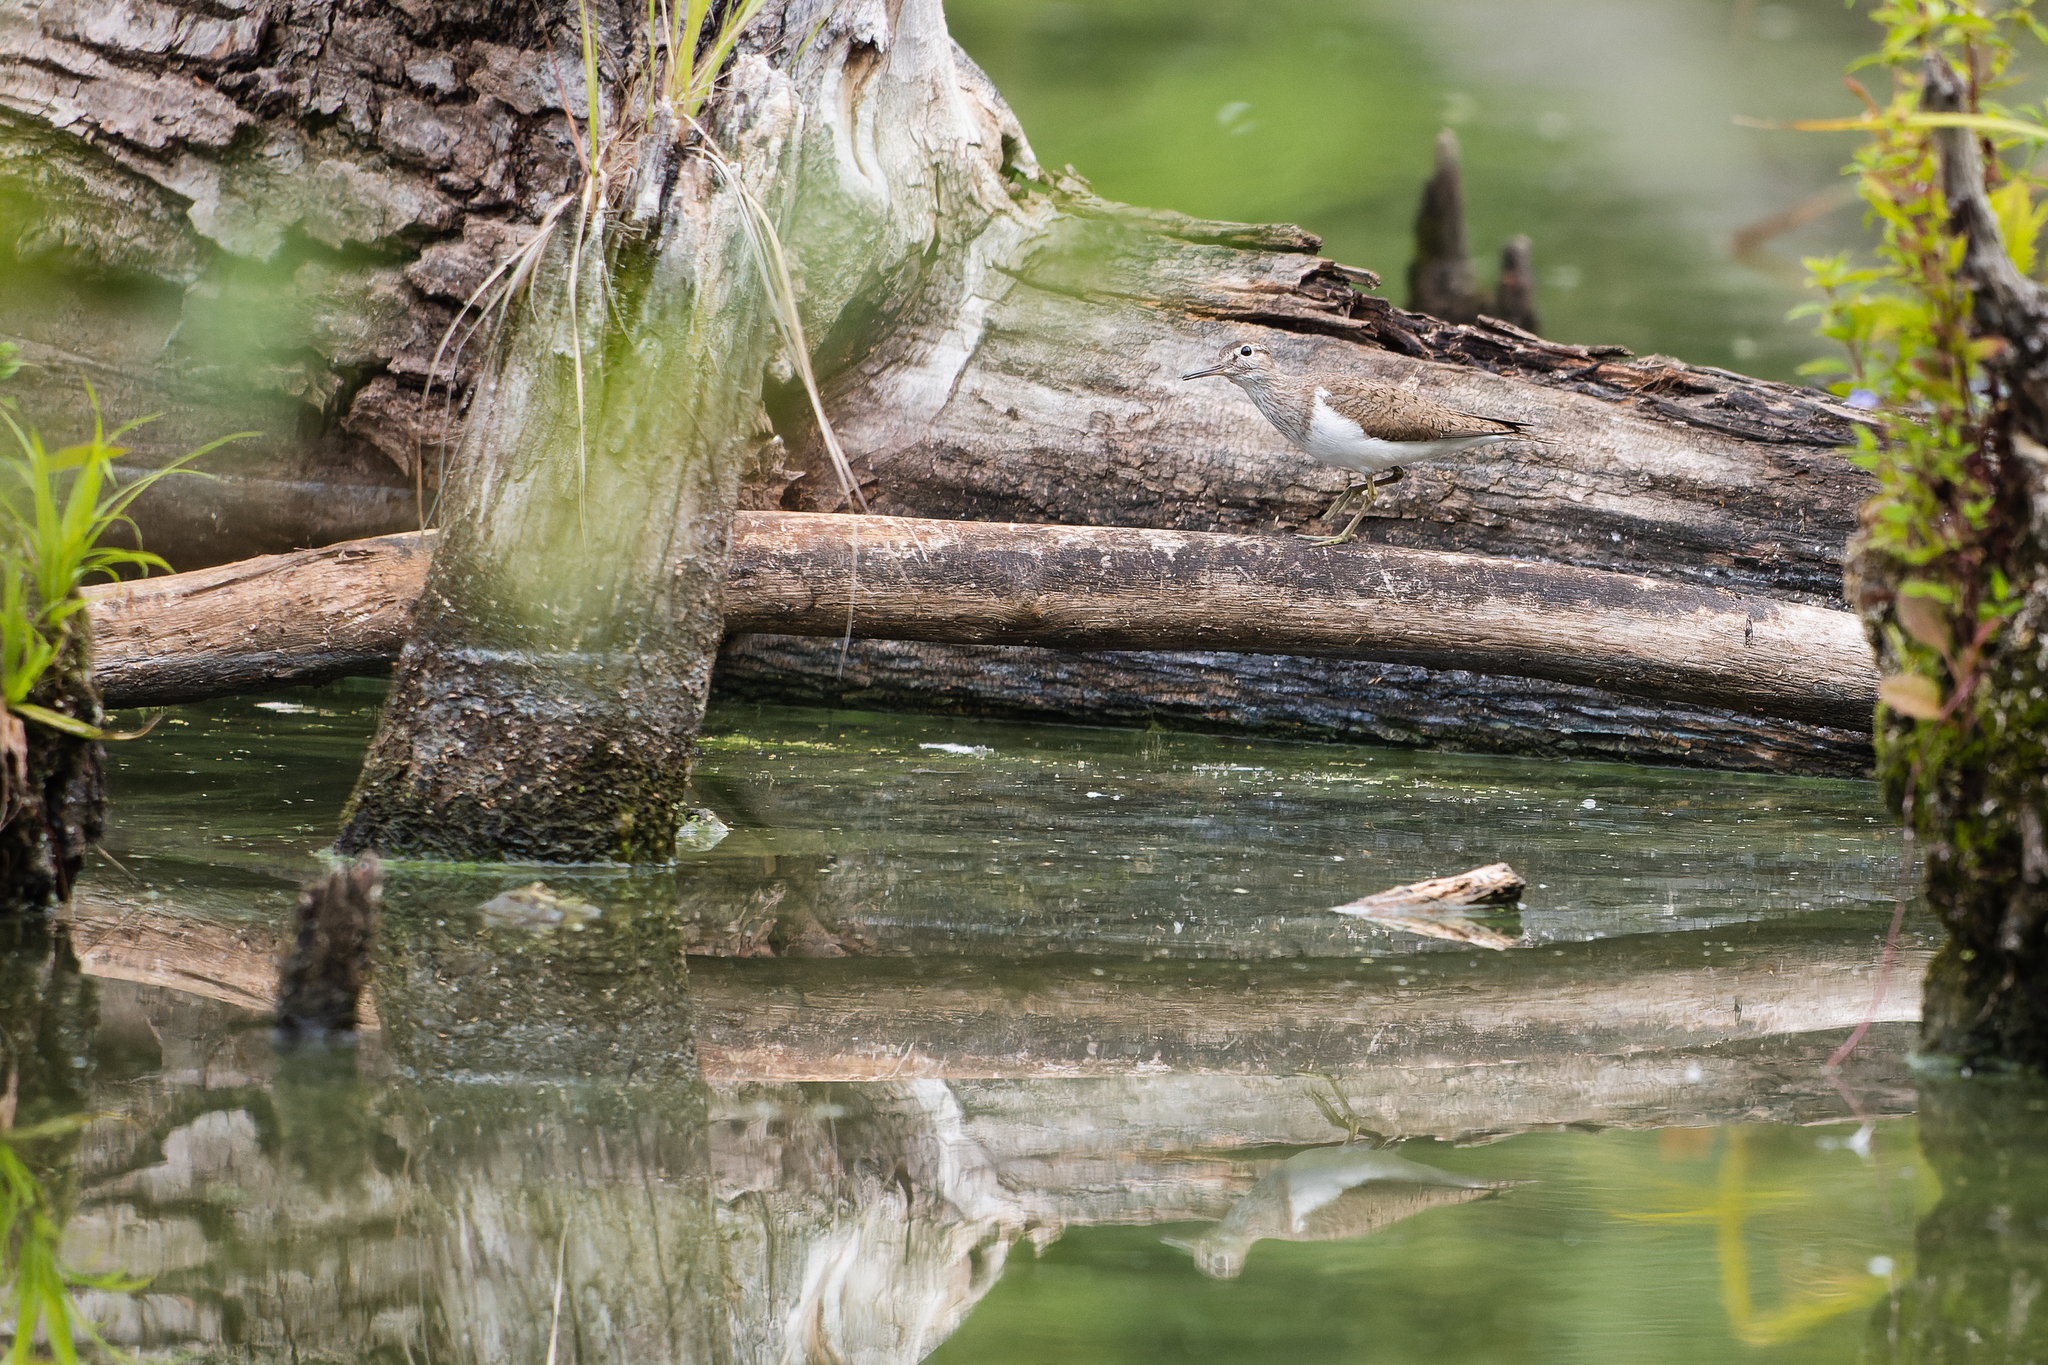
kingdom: Animalia
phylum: Chordata
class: Aves
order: Charadriiformes
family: Scolopacidae
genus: Actitis
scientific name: Actitis hypoleucos
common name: Common sandpiper
